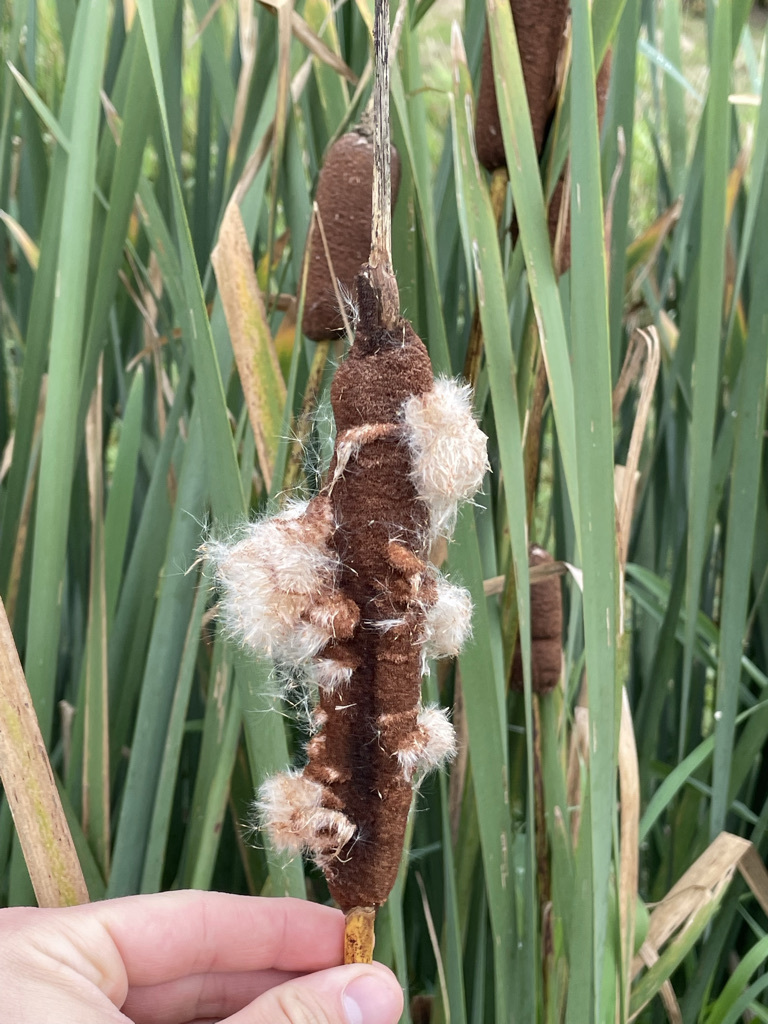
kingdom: Plantae
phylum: Tracheophyta
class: Liliopsida
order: Poales
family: Typhaceae
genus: Typha
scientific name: Typha latifolia
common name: Broadleaf cattail
